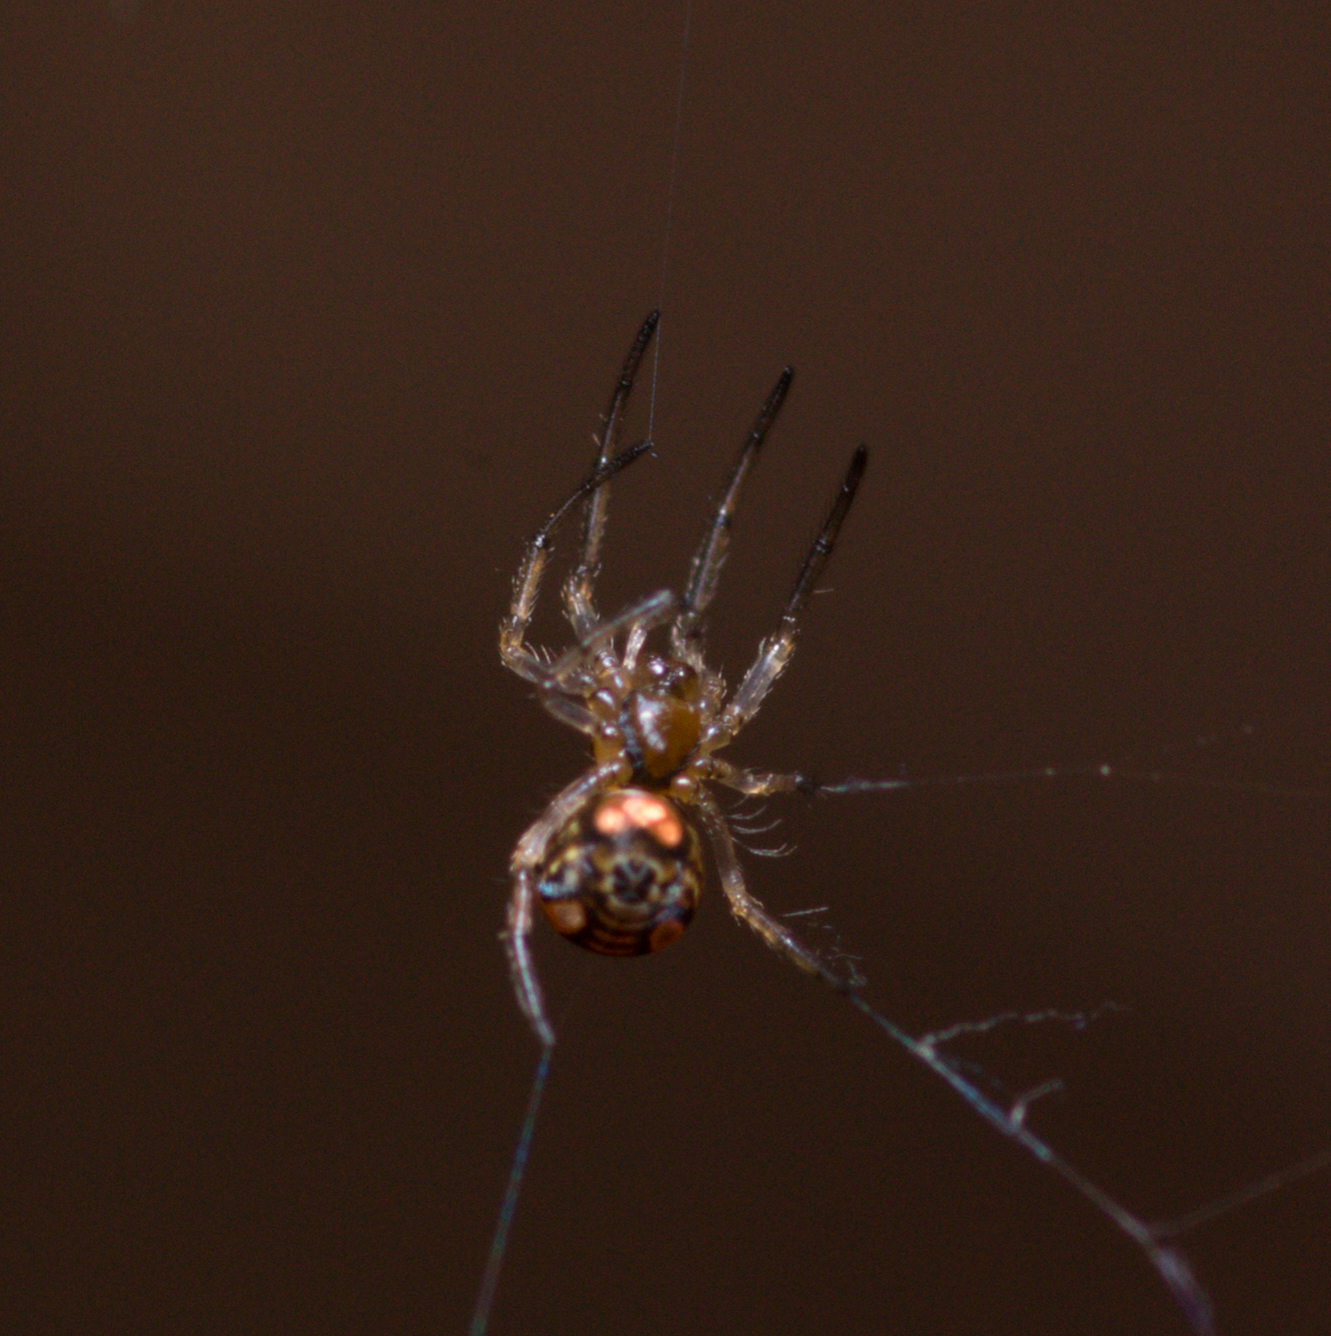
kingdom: Animalia
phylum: Arthropoda
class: Arachnida
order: Araneae
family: Tetragnathidae
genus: Leucauge
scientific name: Leucauge venusta
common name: Longjawed orb weavers
